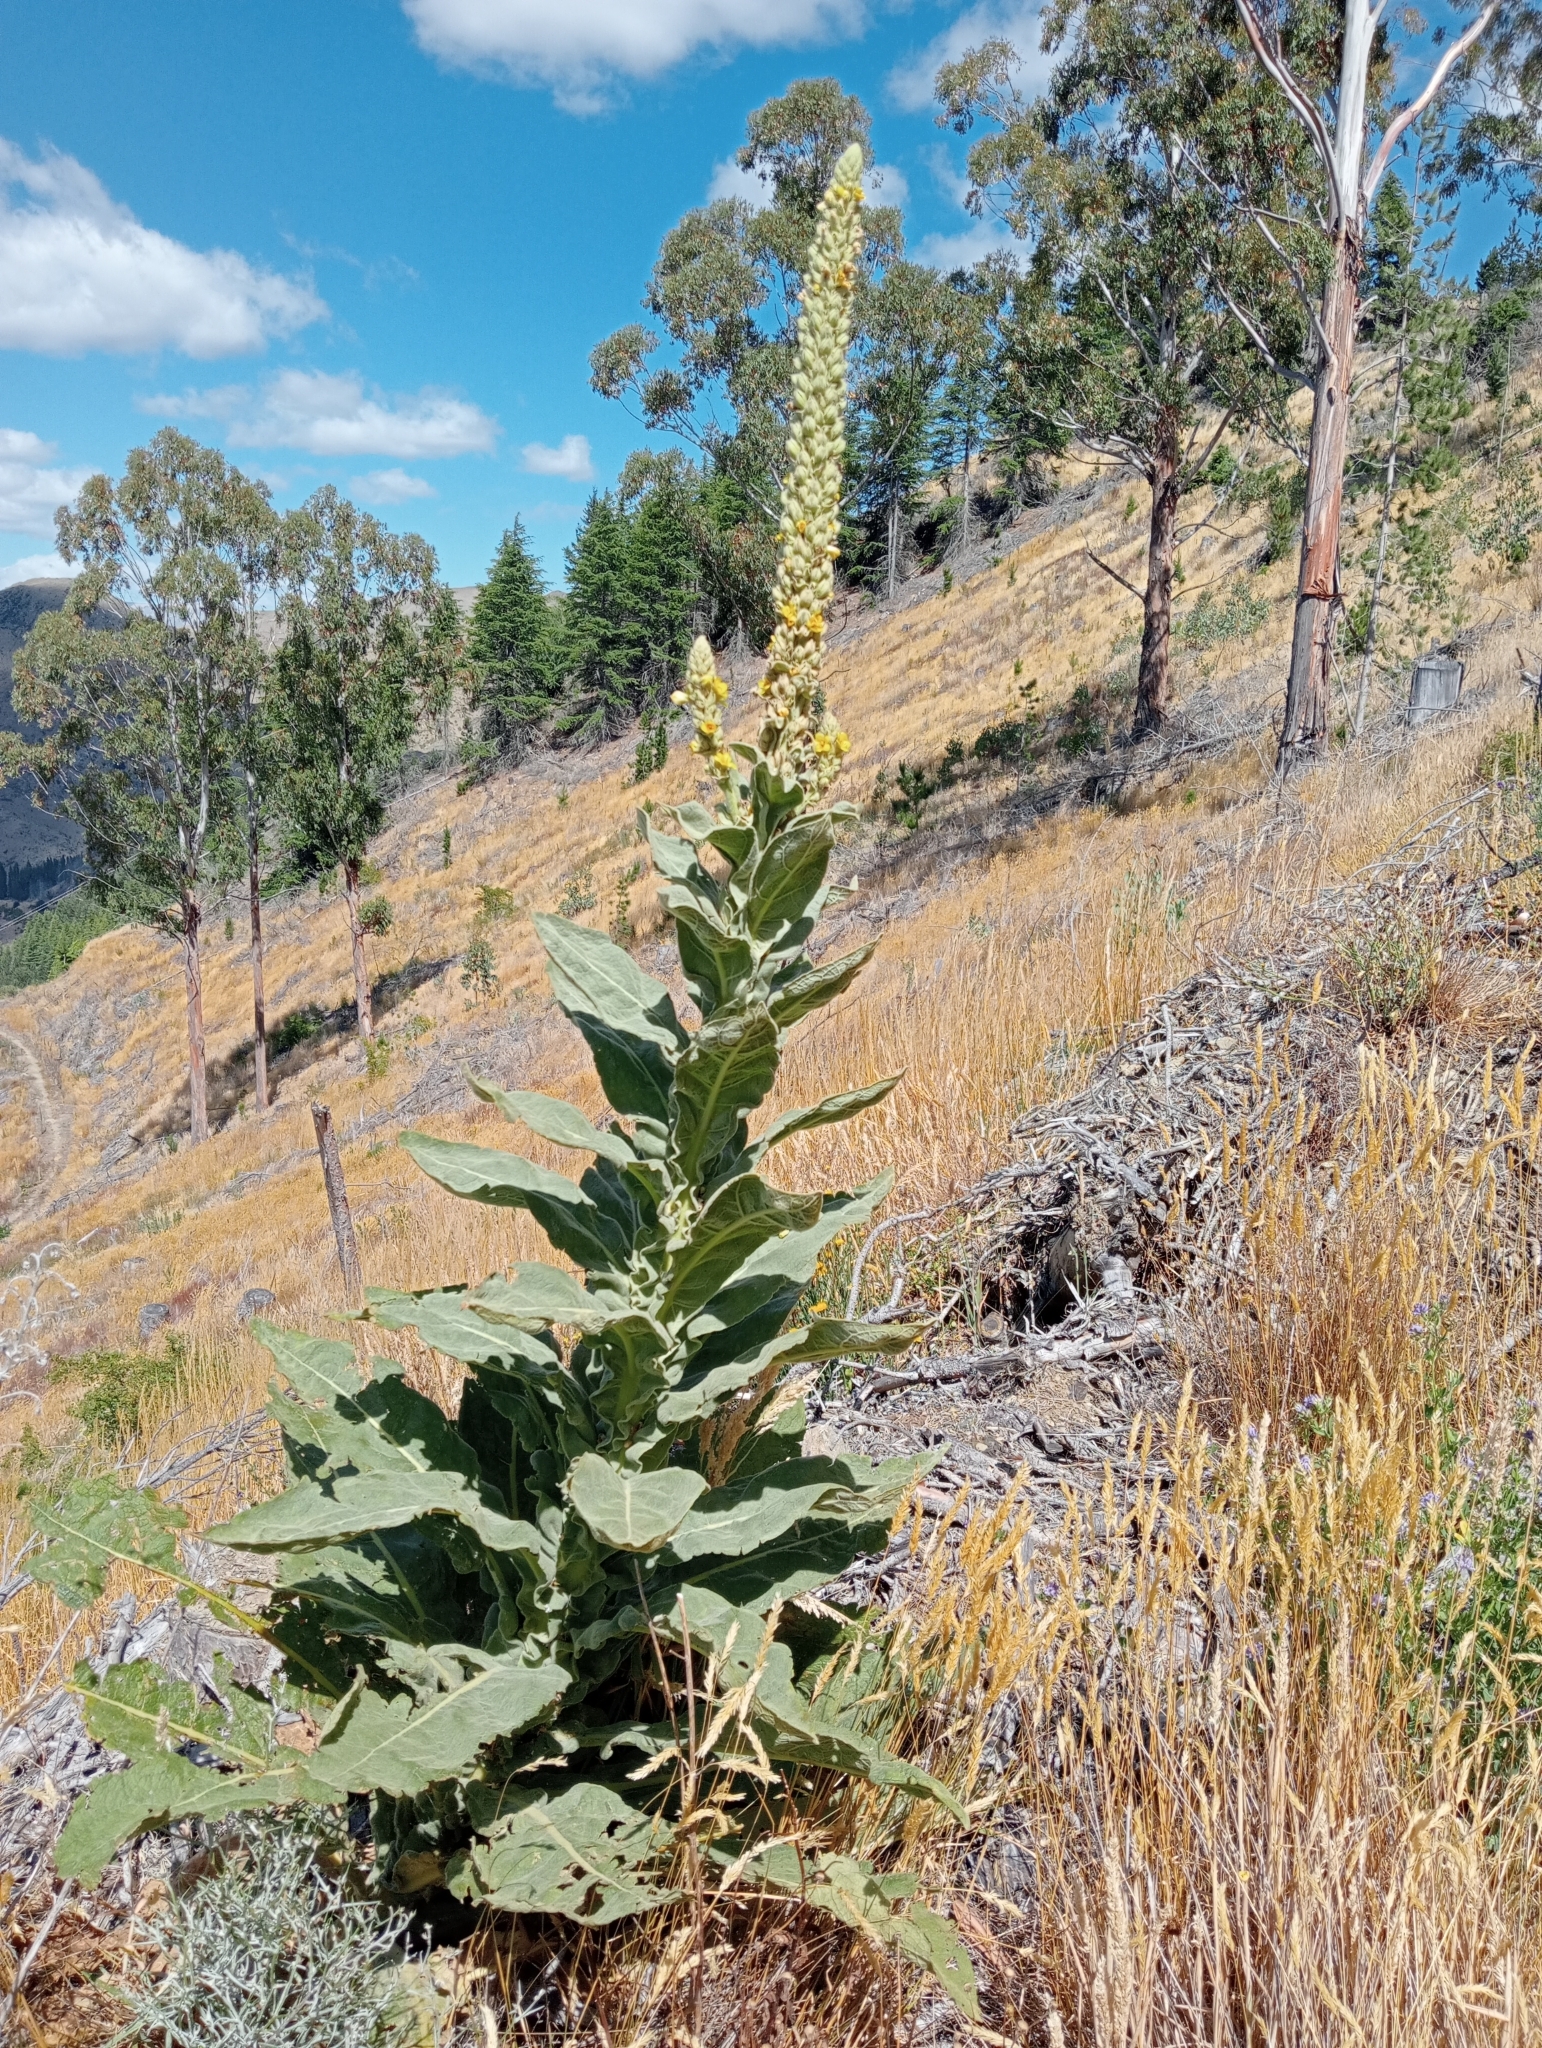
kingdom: Plantae
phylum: Tracheophyta
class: Magnoliopsida
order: Lamiales
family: Scrophulariaceae
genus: Verbascum
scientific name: Verbascum thapsus
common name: Common mullein
